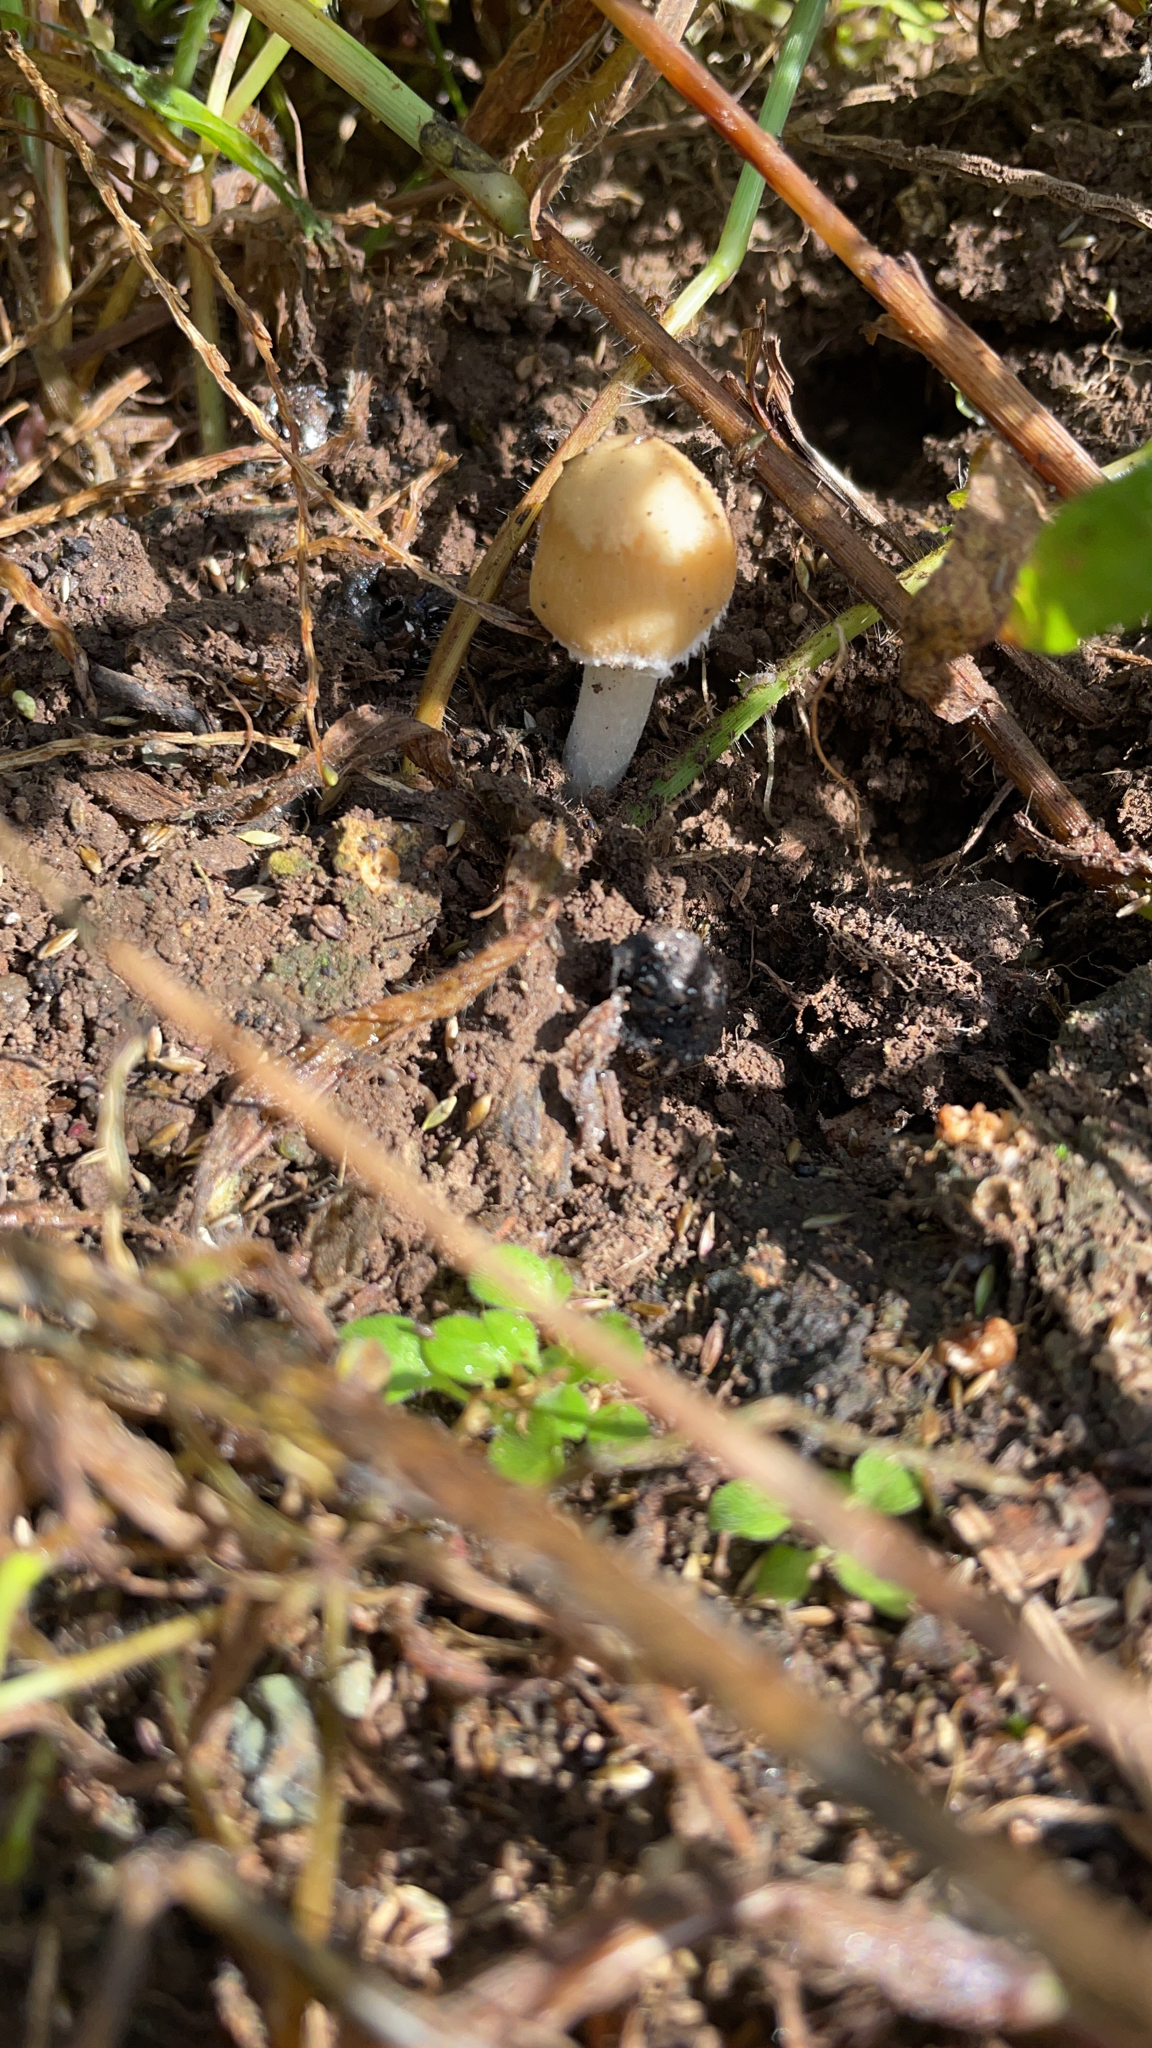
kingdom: Fungi
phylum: Basidiomycota
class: Agaricomycetes
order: Agaricales
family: Psathyrellaceae
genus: Candolleomyces
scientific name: Candolleomyces candolleanus
